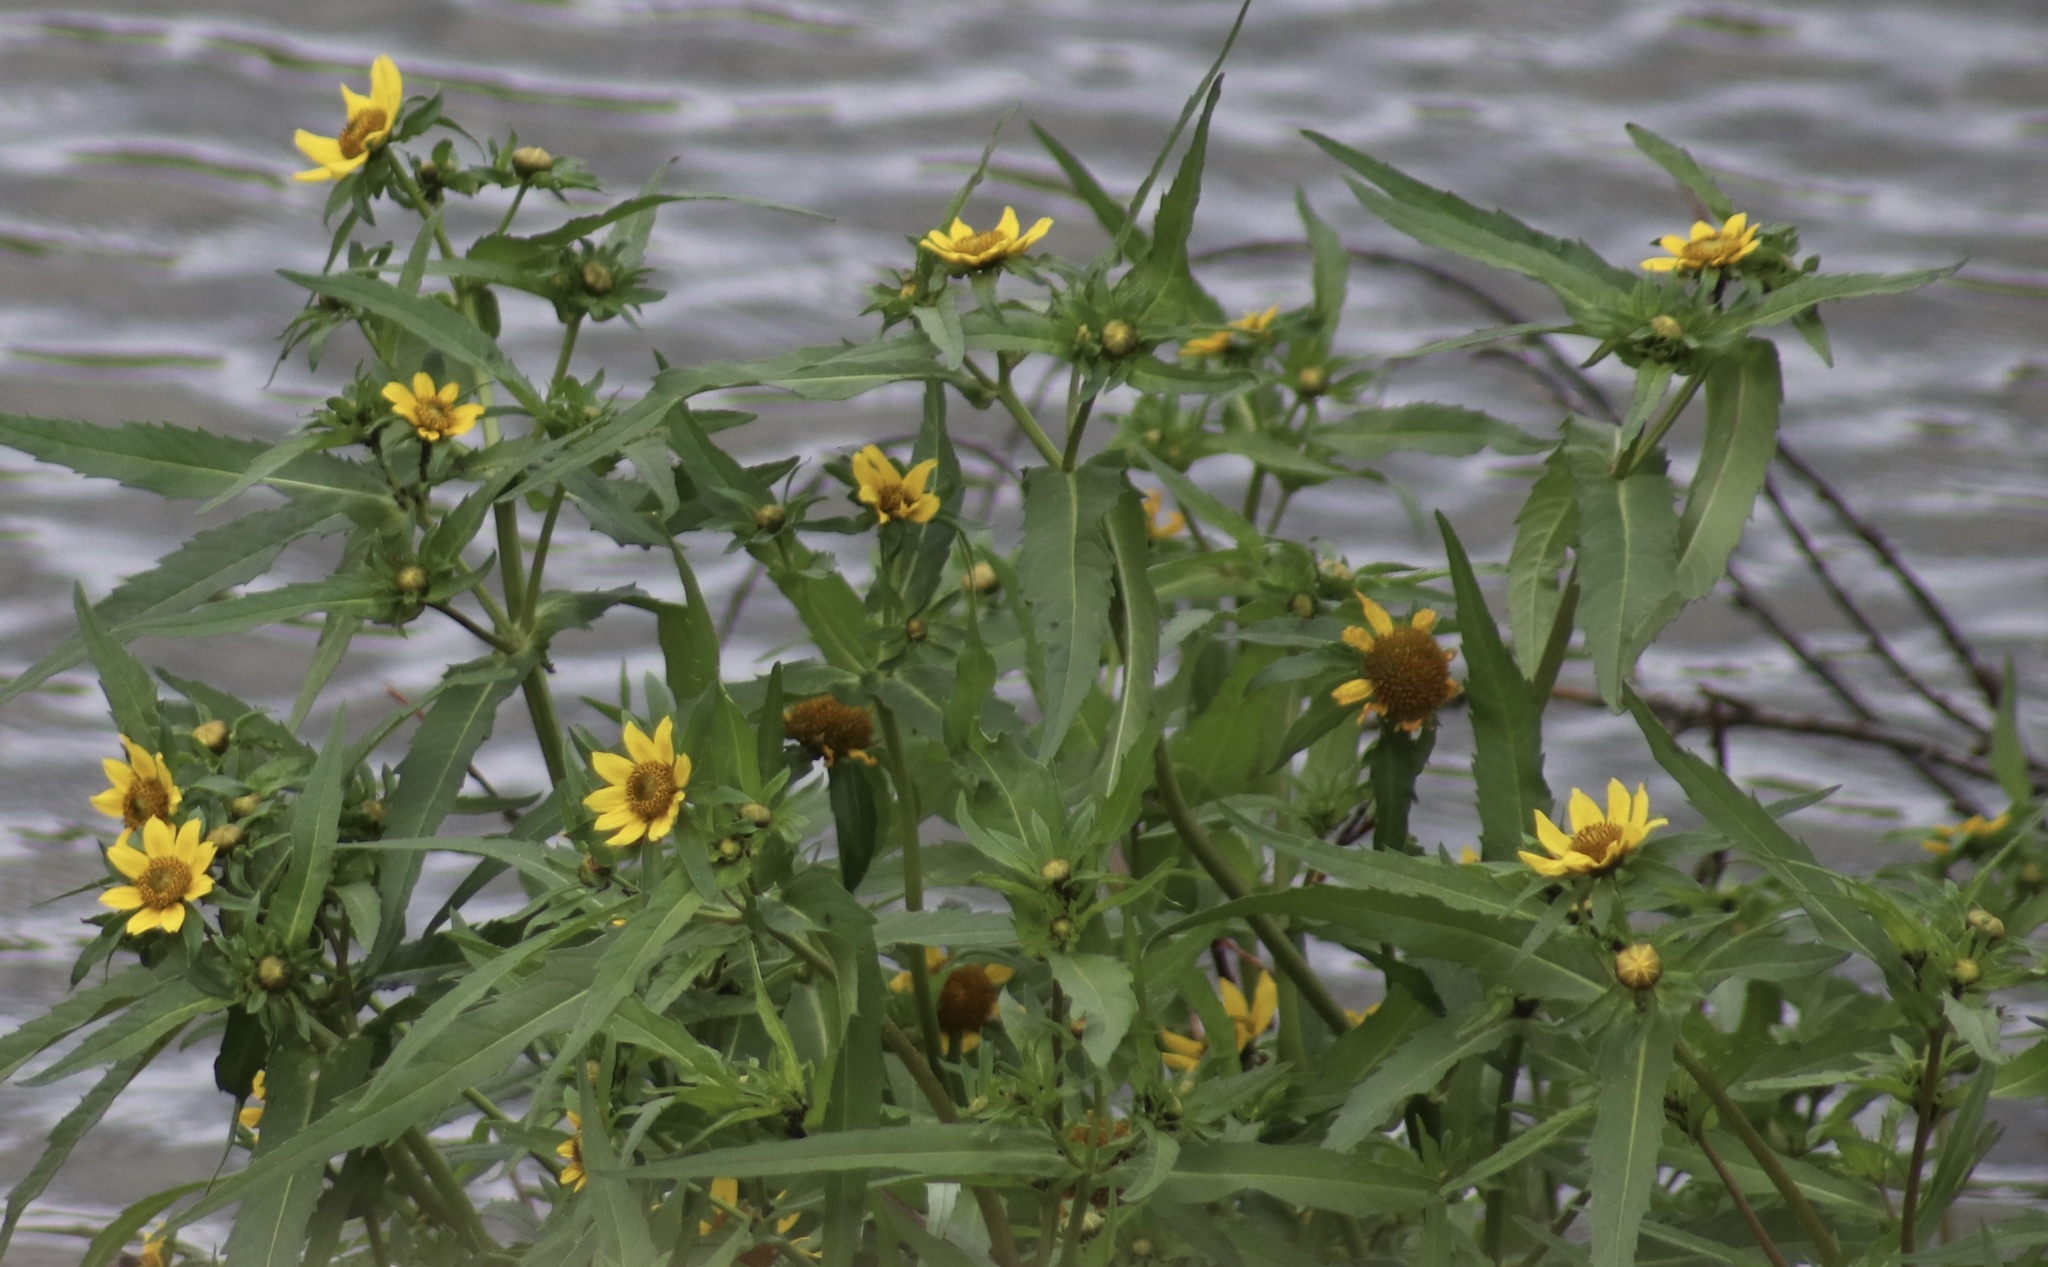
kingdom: Plantae
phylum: Tracheophyta
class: Magnoliopsida
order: Asterales
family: Asteraceae
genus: Bidens
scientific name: Bidens cernua
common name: Nodding bur-marigold
